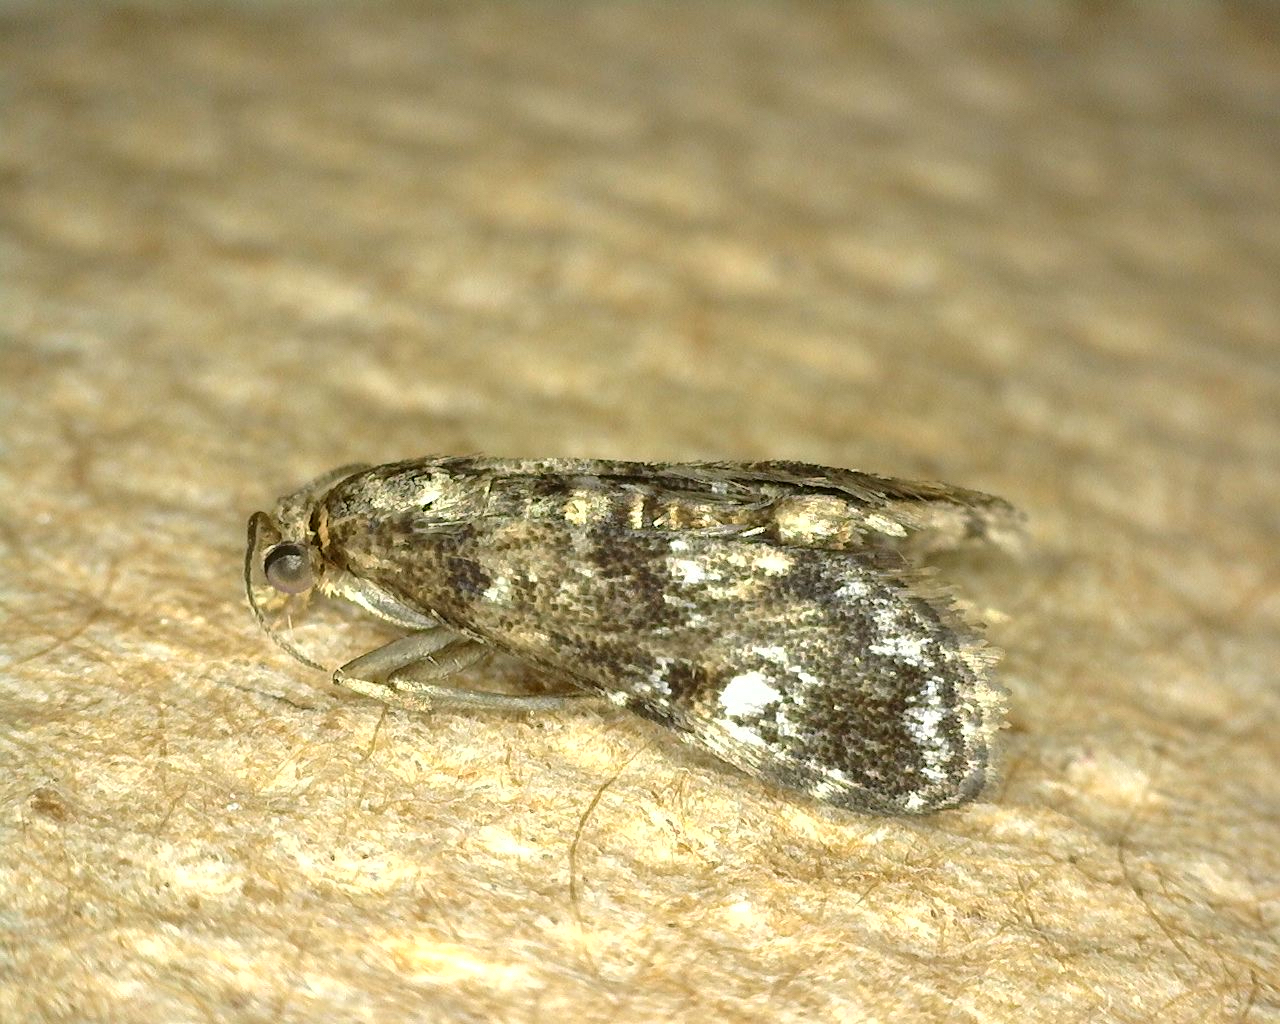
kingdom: Animalia
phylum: Arthropoda
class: Insecta
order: Lepidoptera
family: Crambidae
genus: Elophila
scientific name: Elophila obliteralis
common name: Waterlily leafcutter moth
